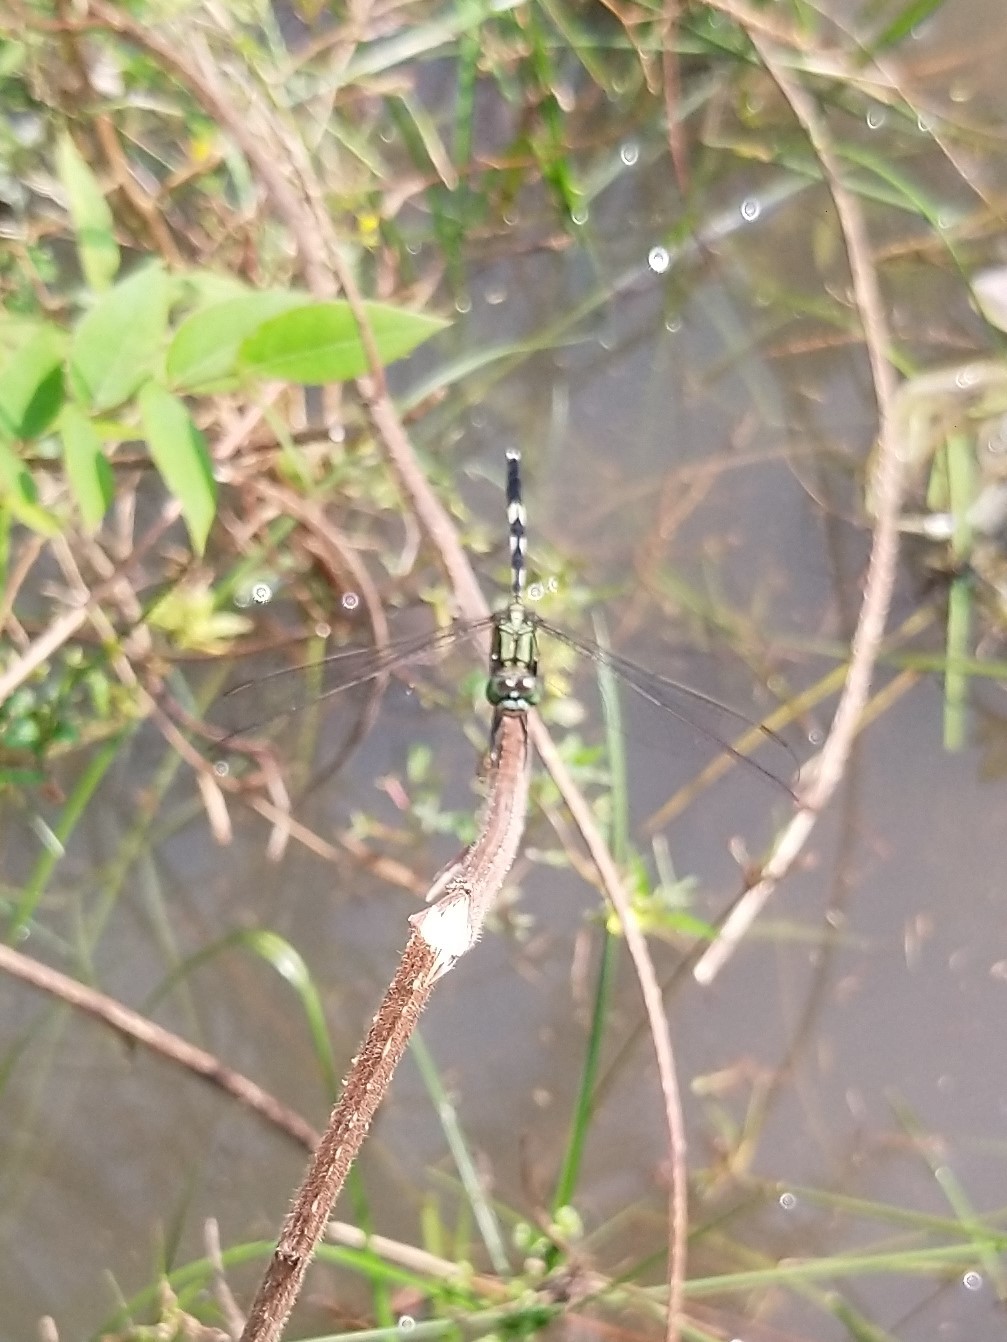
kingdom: Animalia
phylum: Arthropoda
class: Insecta
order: Odonata
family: Libellulidae
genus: Orthetrum
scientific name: Orthetrum sabina
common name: Slender skimmer
